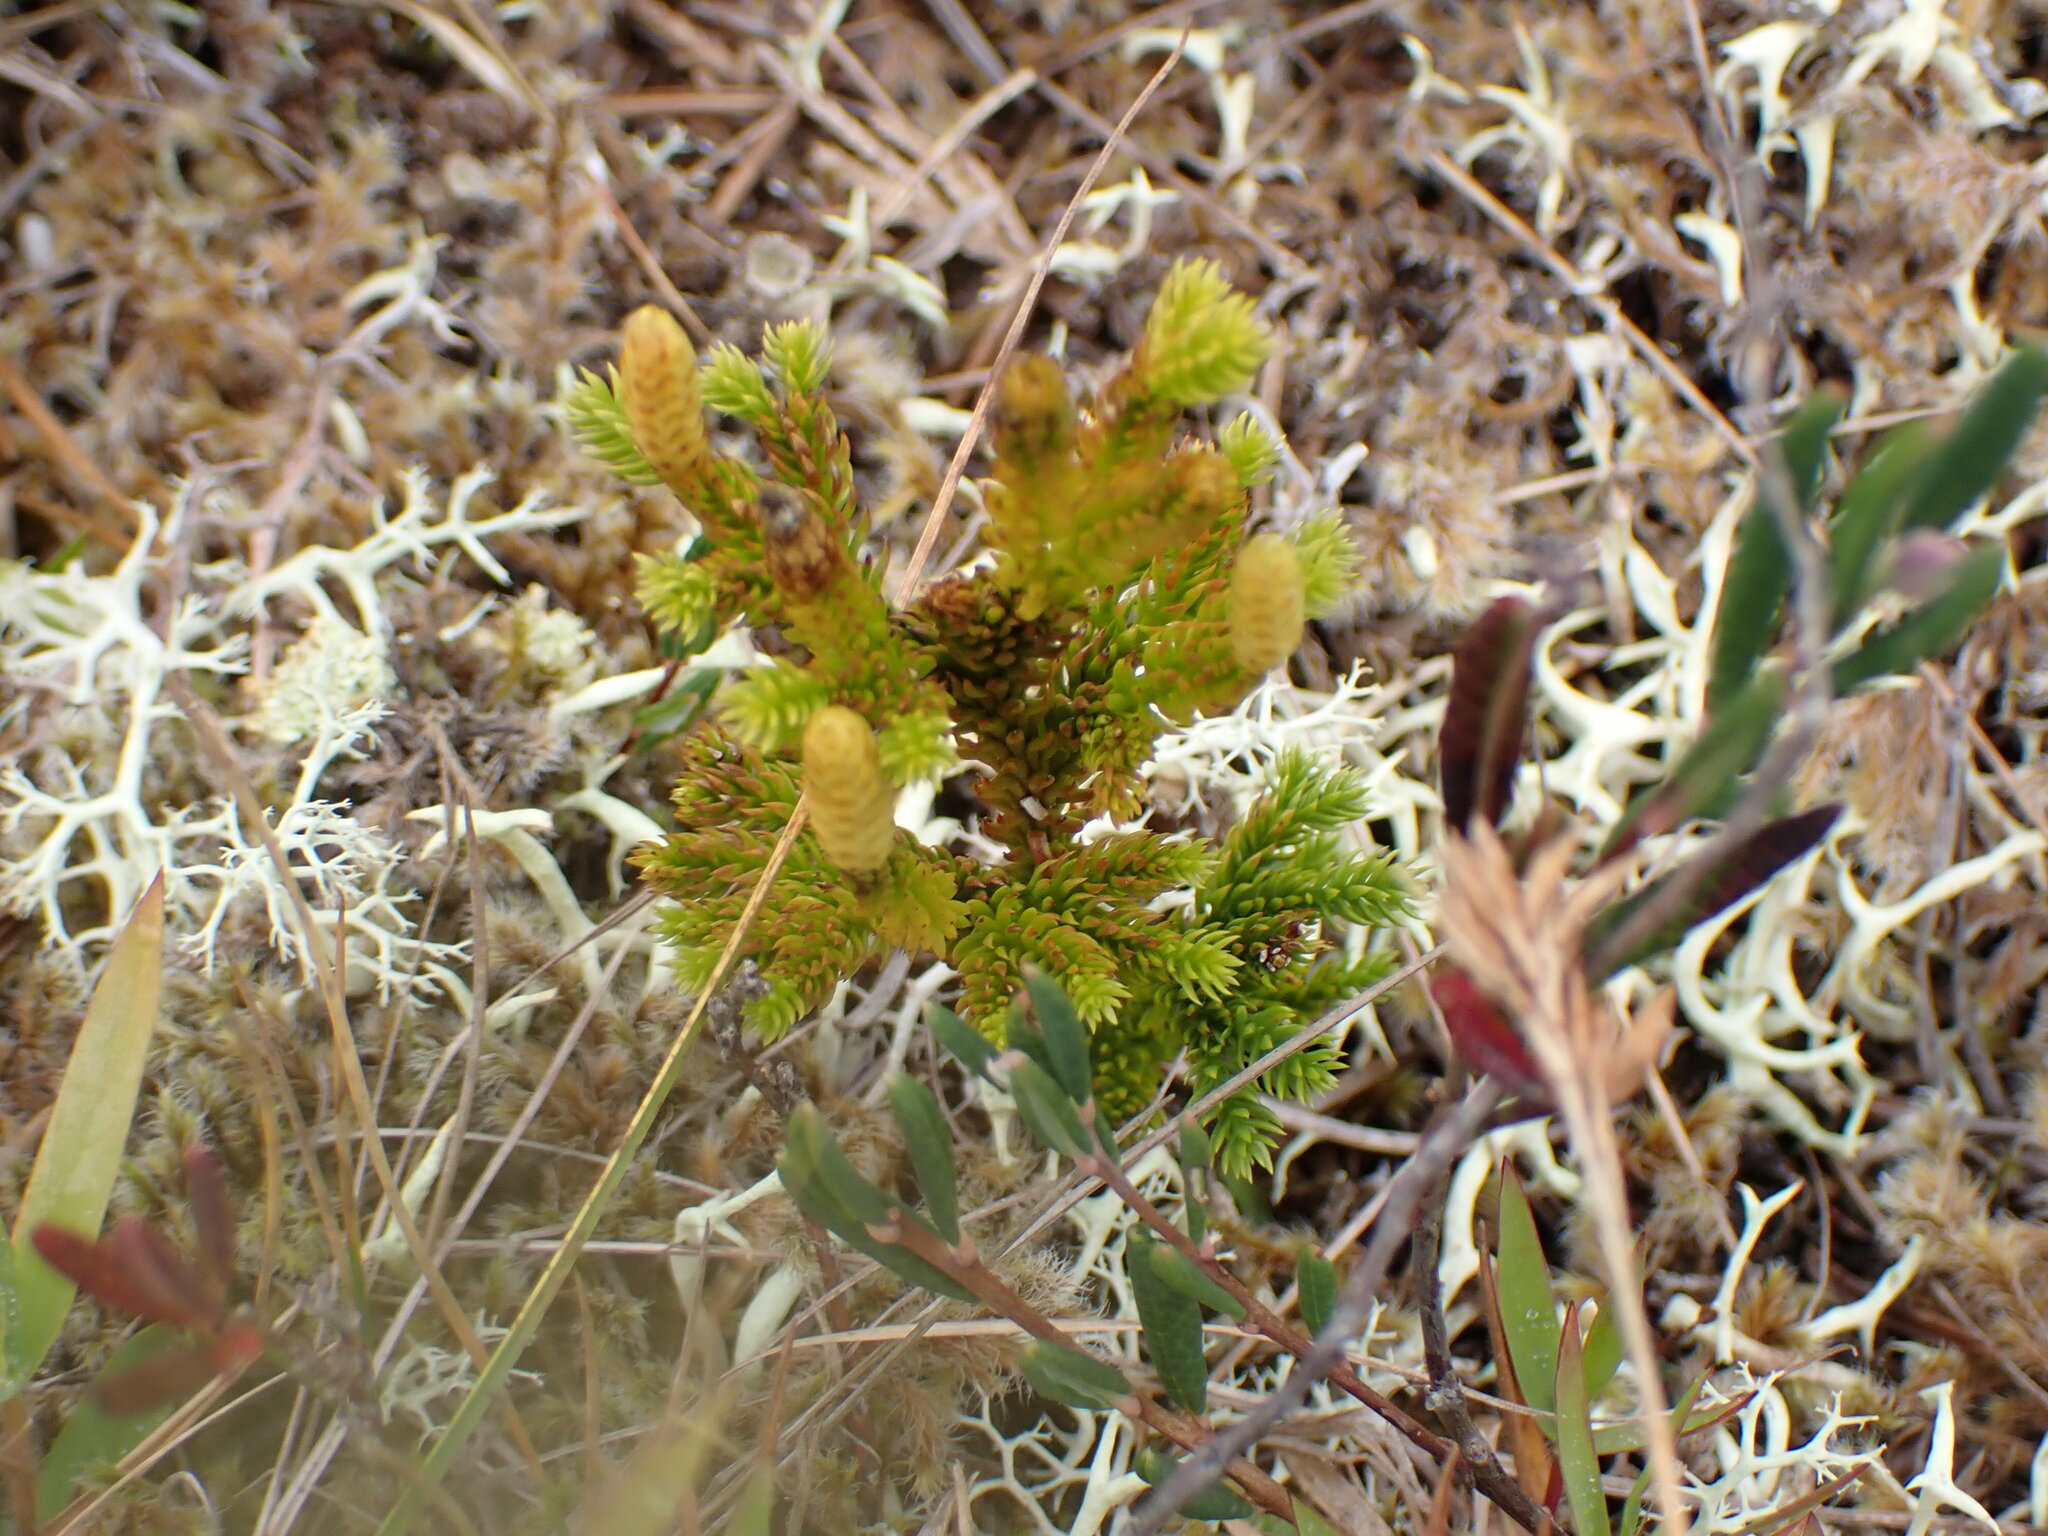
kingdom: Plantae
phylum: Tracheophyta
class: Lycopodiopsida
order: Lycopodiales
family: Lycopodiaceae
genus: Dendrolycopodium
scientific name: Dendrolycopodium dendroideum
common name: Northern tree-clubmoss
